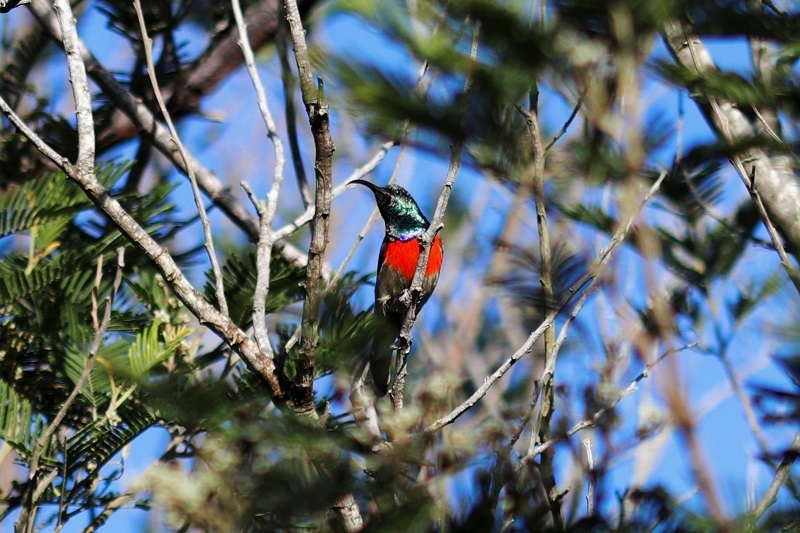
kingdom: Animalia
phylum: Chordata
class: Aves
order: Passeriformes
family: Nectariniidae
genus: Cinnyris
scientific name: Cinnyris afer
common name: Greater double-collared sunbird
